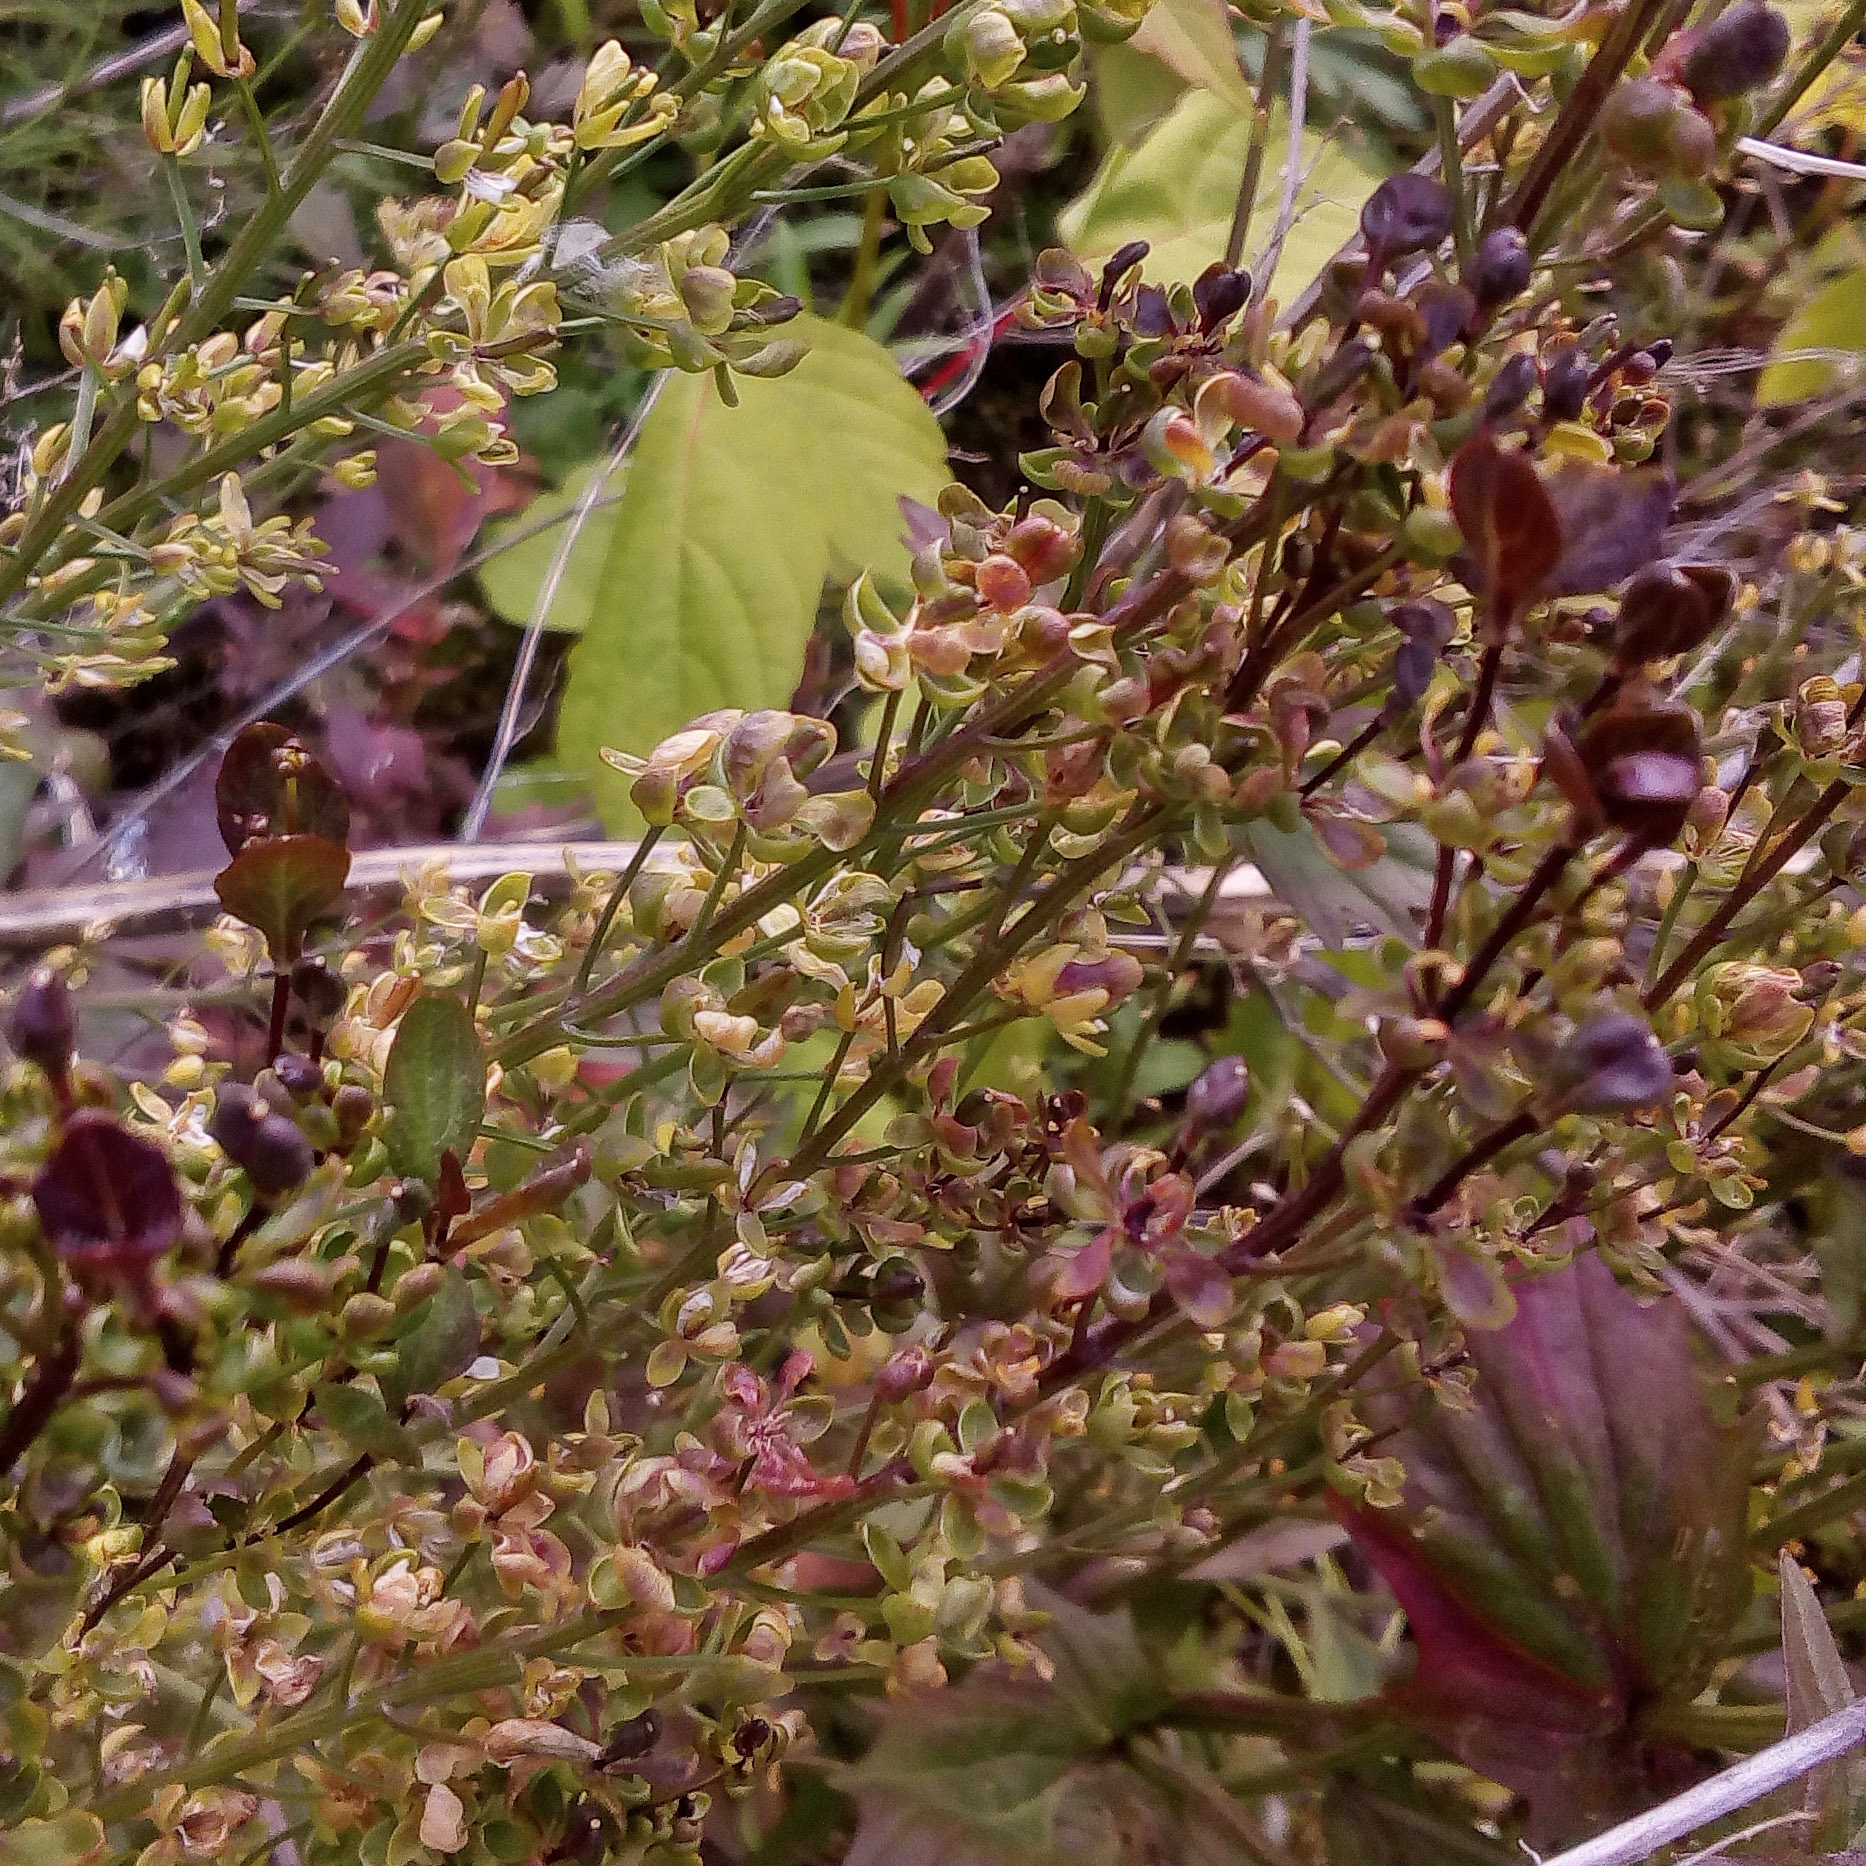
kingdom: Plantae
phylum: Tracheophyta
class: Magnoliopsida
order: Brassicales
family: Brassicaceae
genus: Barbarea
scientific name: Barbarea vulgaris
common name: Cressy-greens
